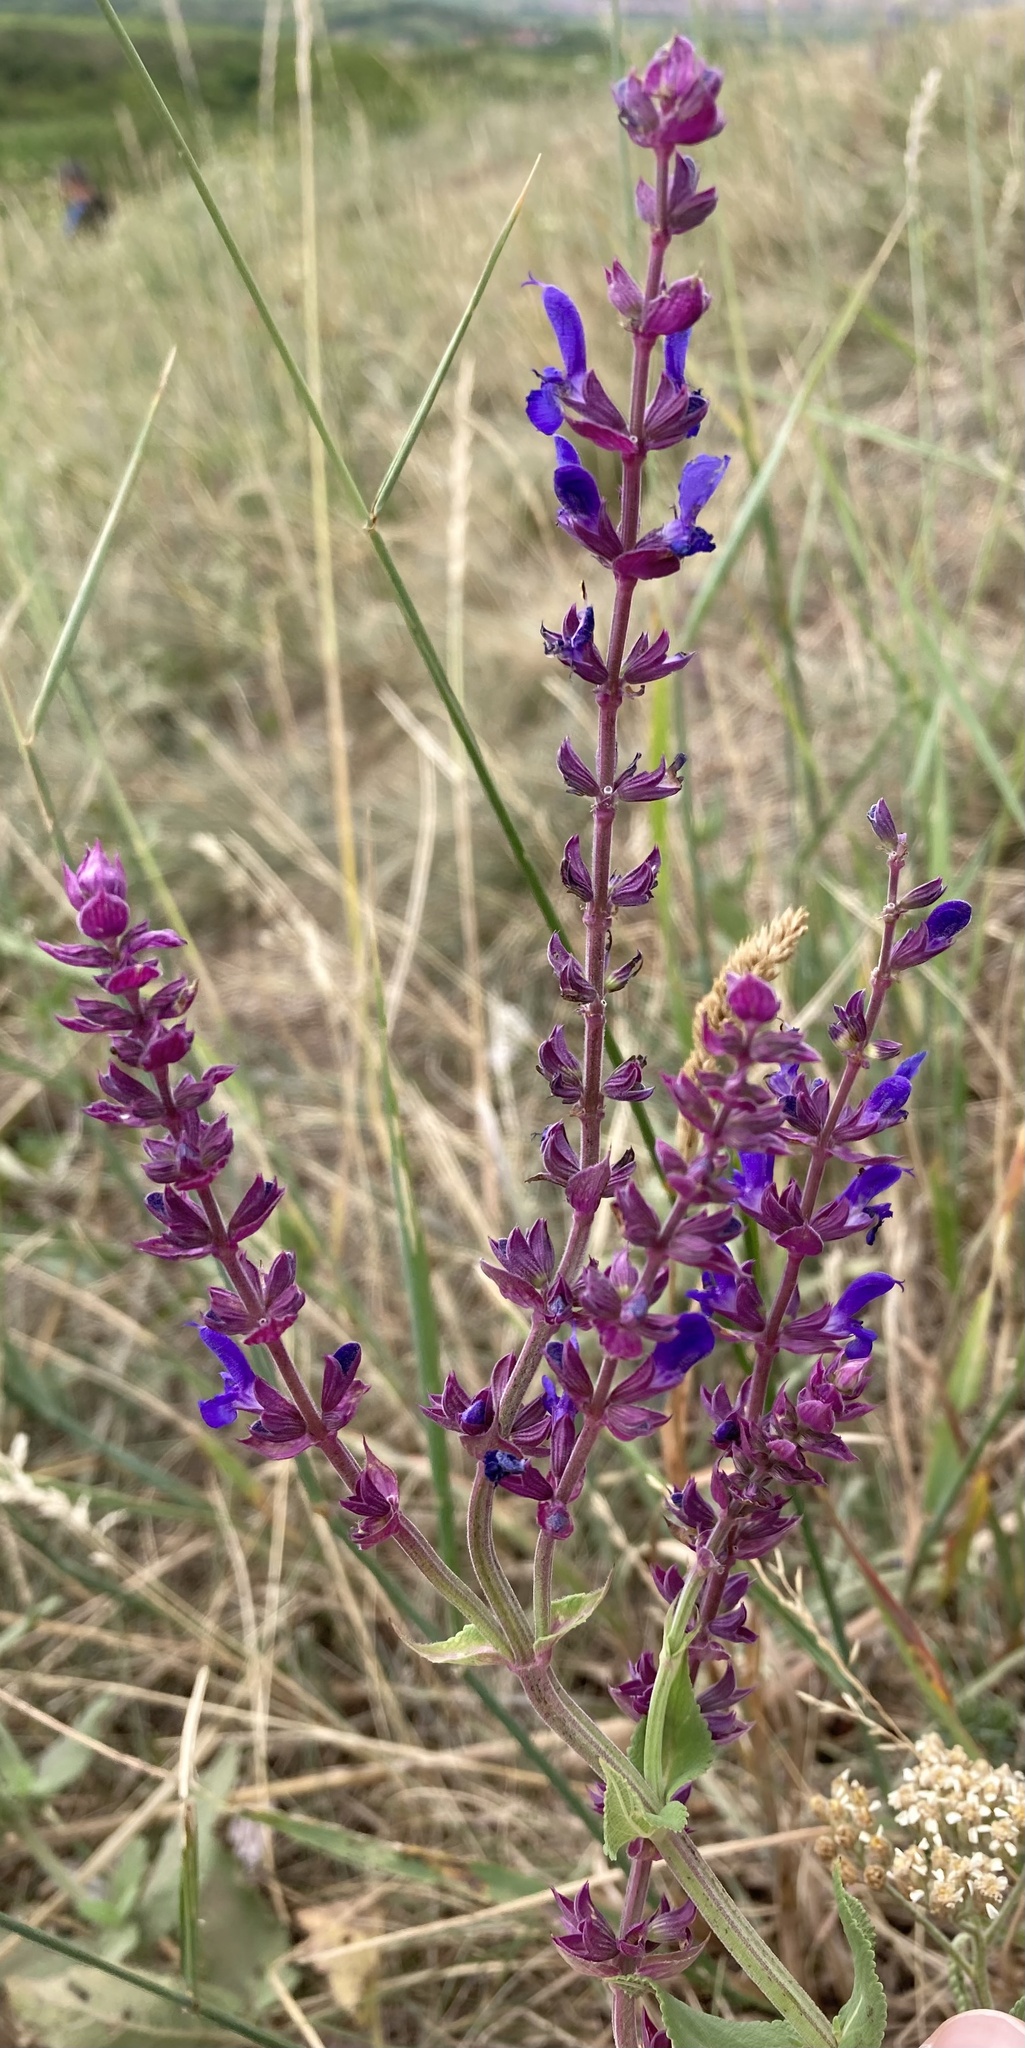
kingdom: Plantae
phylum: Tracheophyta
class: Magnoliopsida
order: Lamiales
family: Lamiaceae
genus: Salvia
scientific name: Salvia nemorosa
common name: Balkan clary
